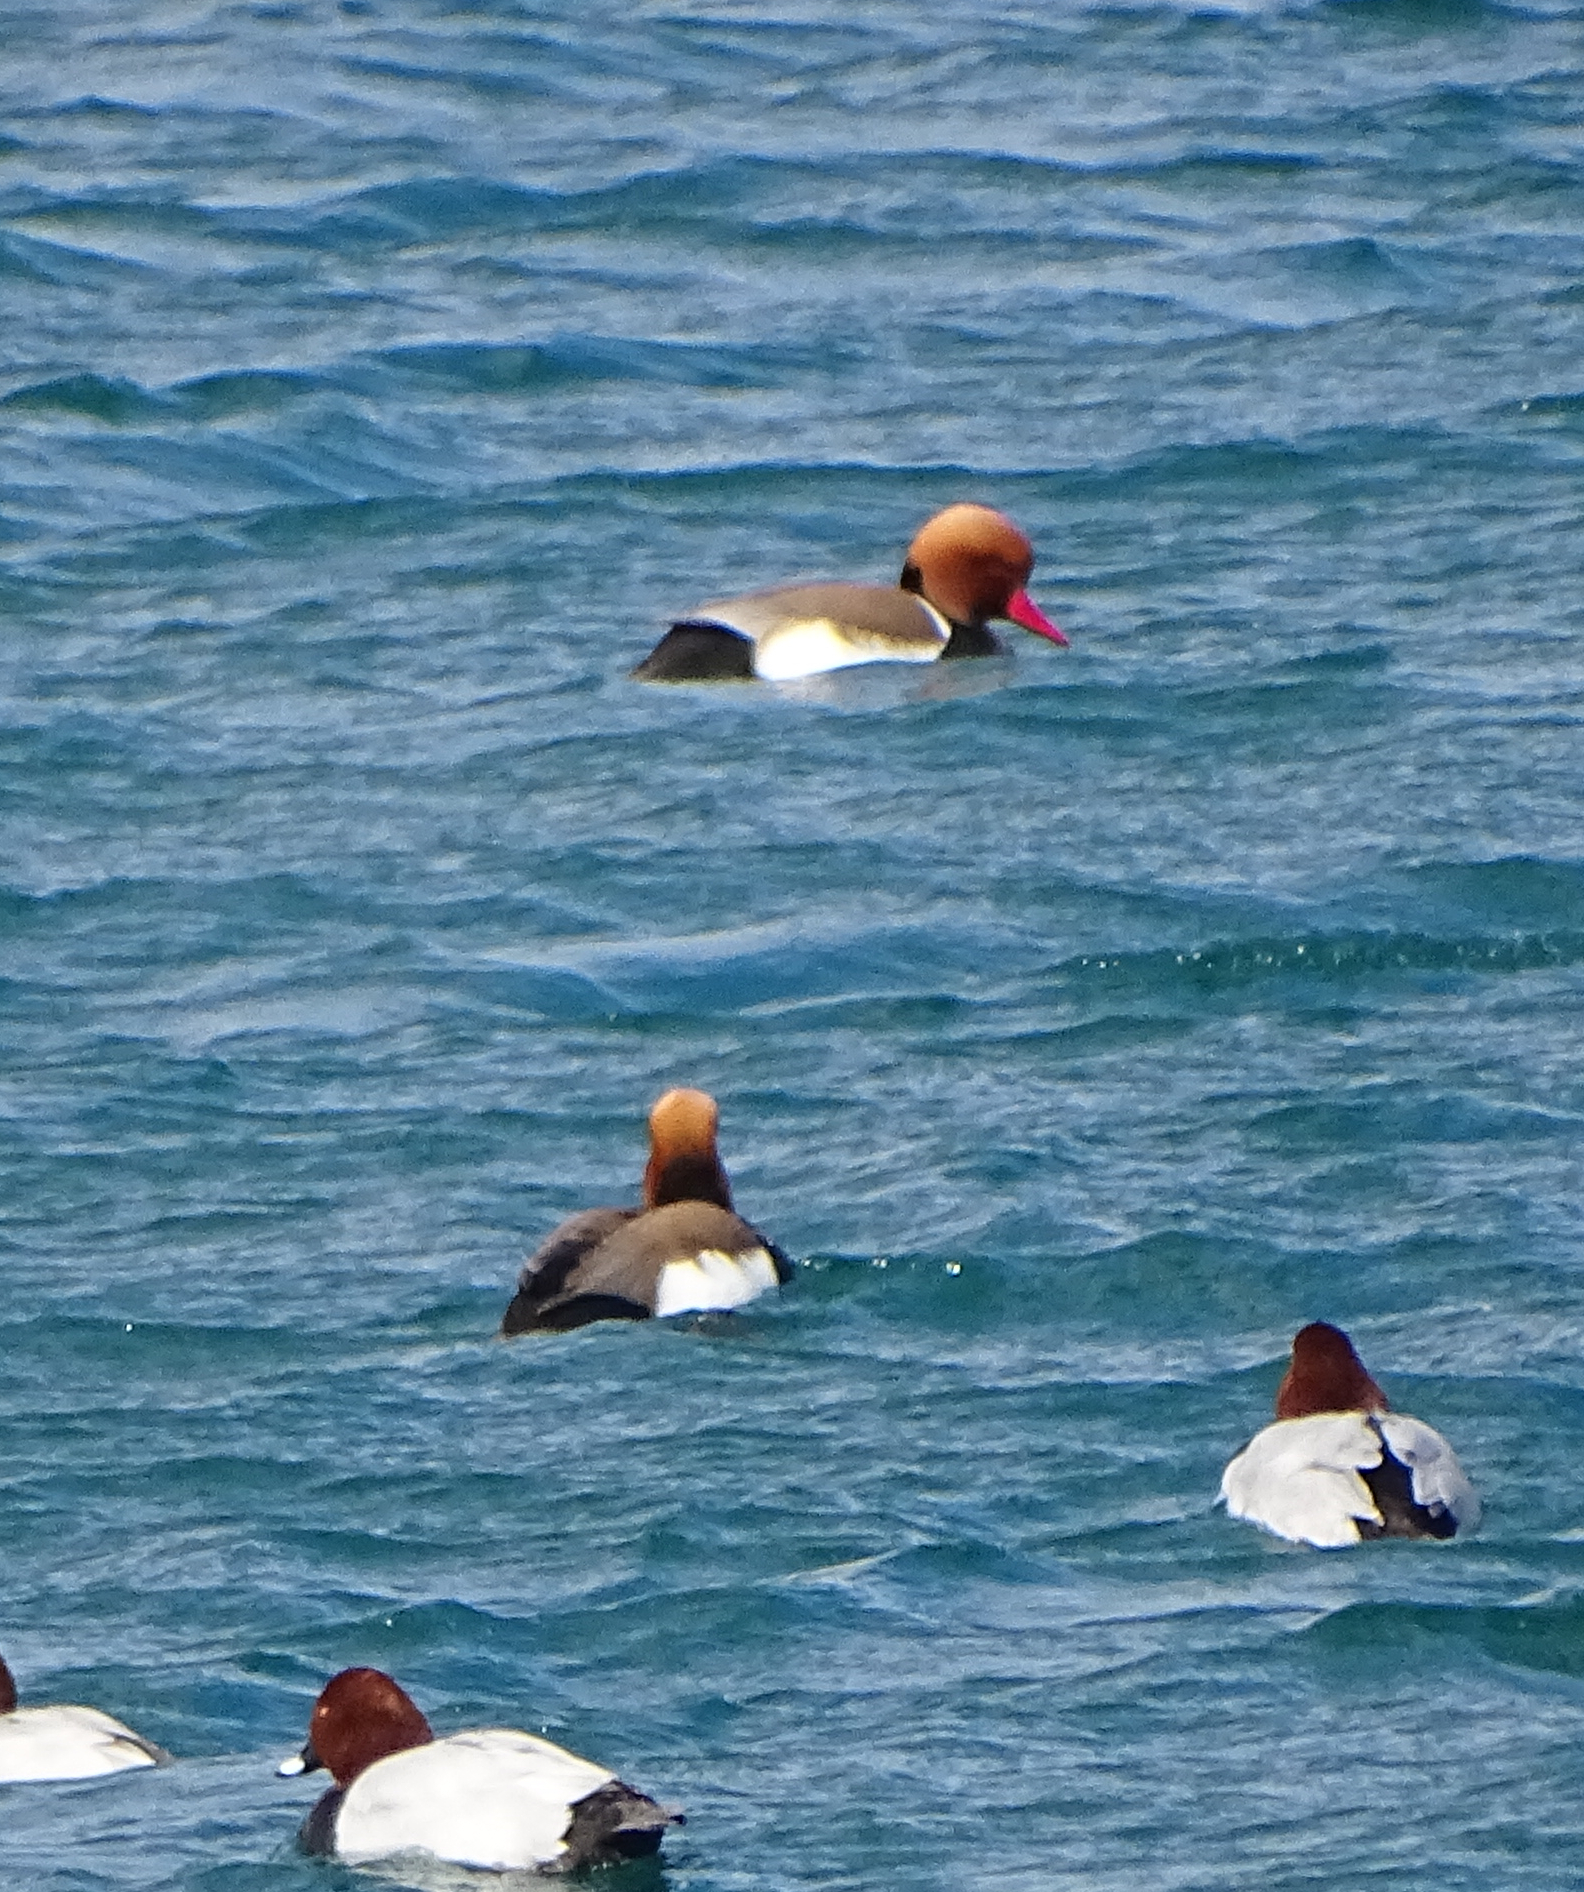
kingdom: Animalia
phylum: Chordata
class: Aves
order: Anseriformes
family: Anatidae
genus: Netta
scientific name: Netta rufina
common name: Red-crested pochard
